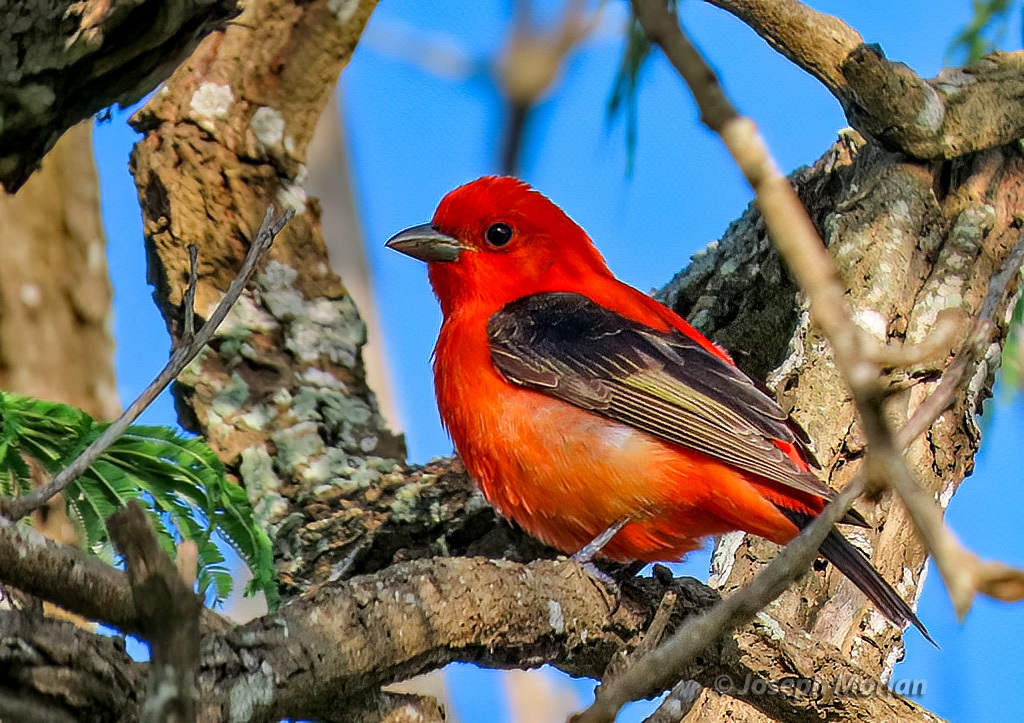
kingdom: Animalia
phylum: Chordata
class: Aves
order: Passeriformes
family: Cardinalidae
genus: Piranga
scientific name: Piranga olivacea
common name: Scarlet tanager
